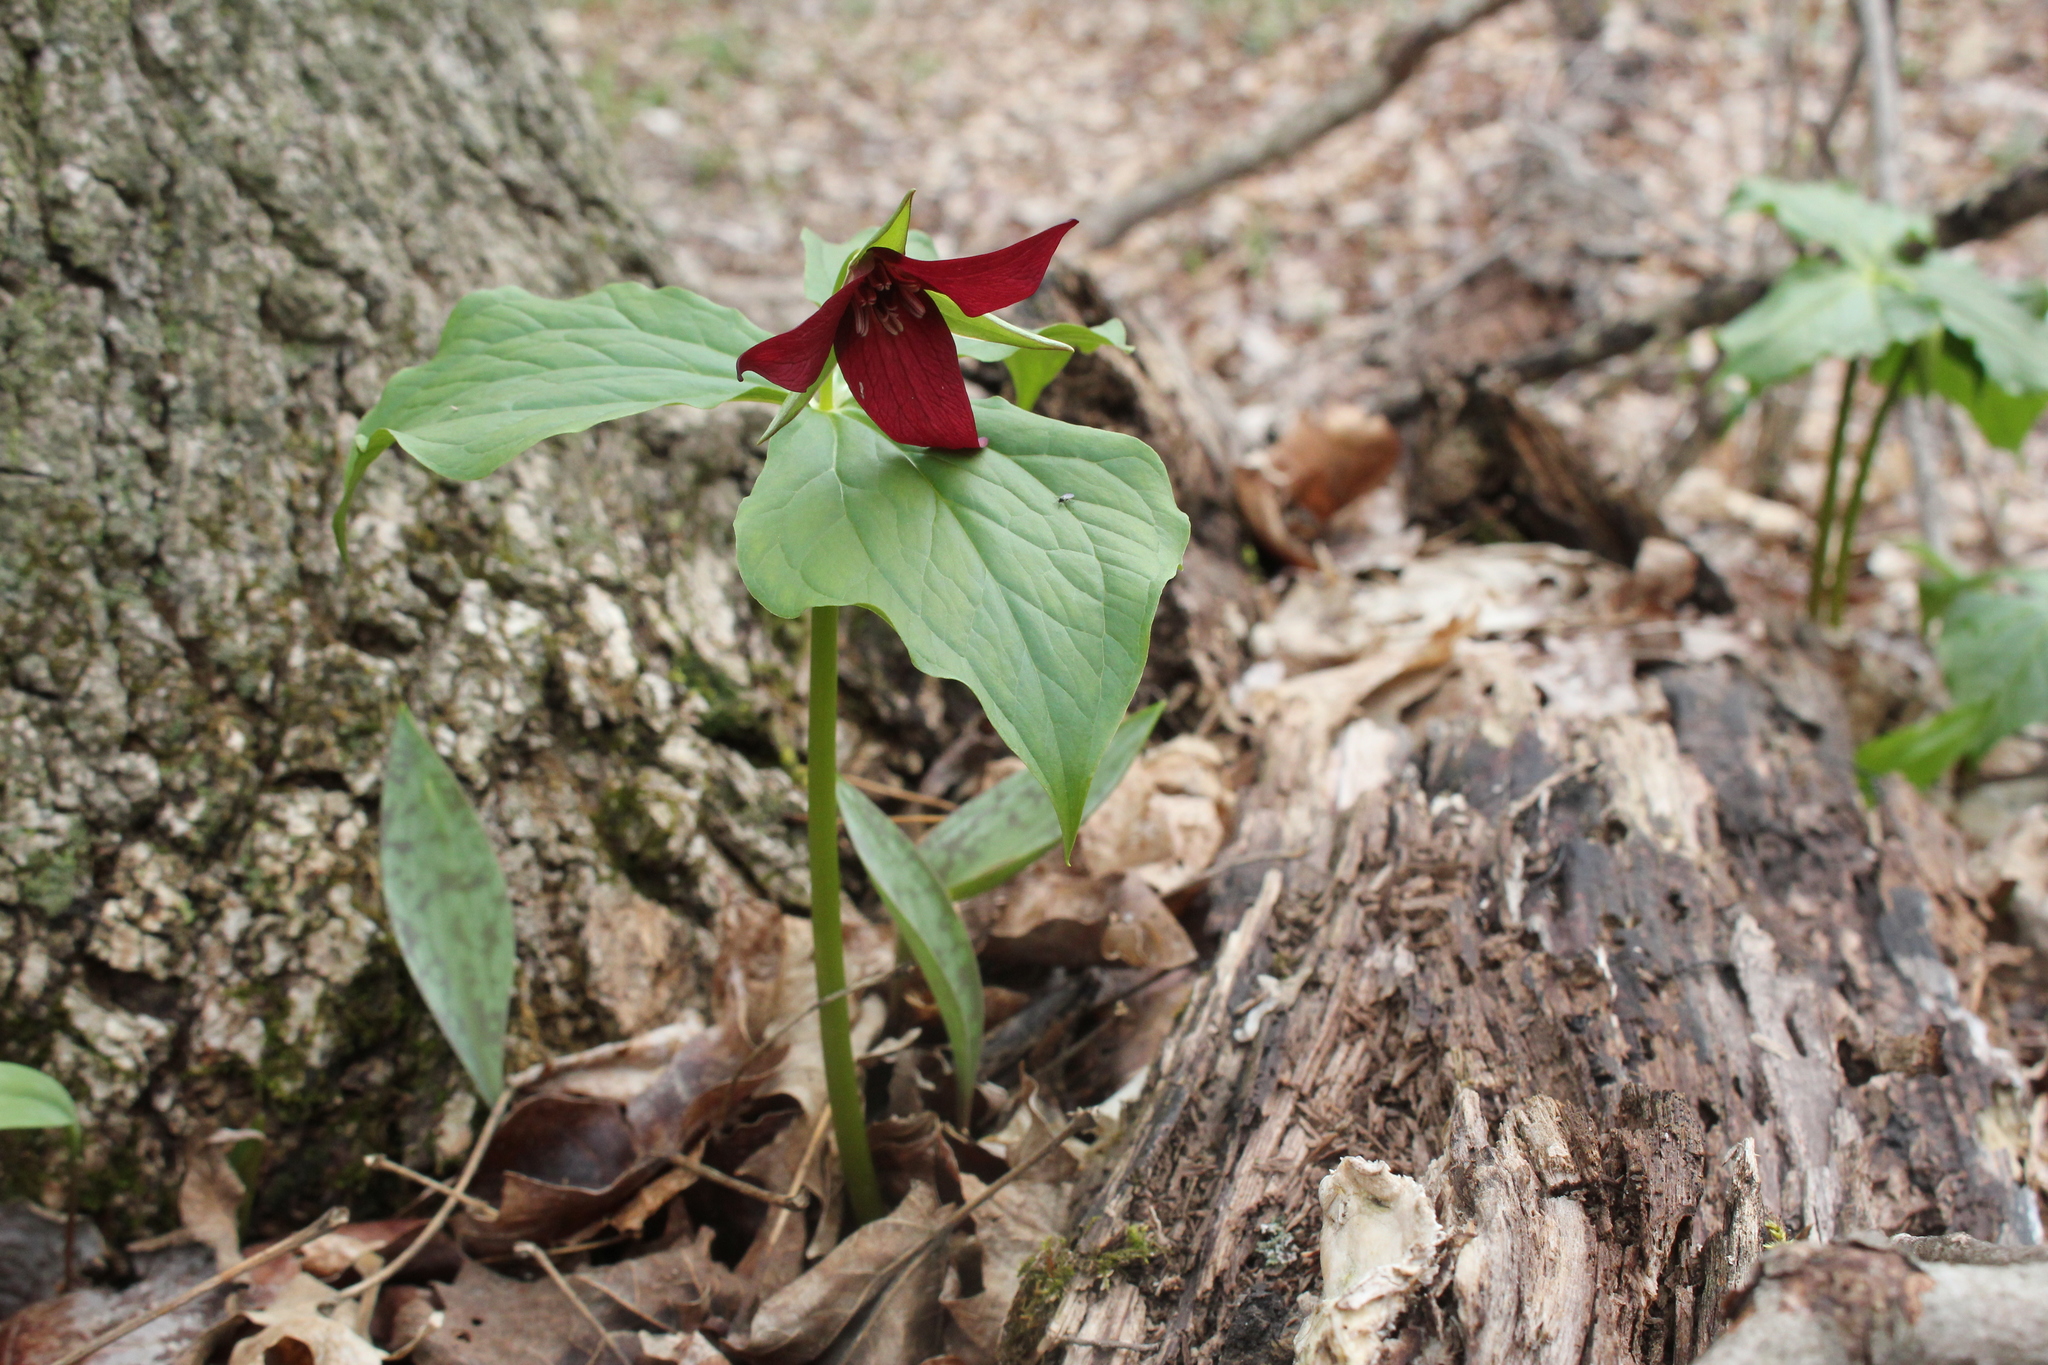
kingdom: Plantae
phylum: Tracheophyta
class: Liliopsida
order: Liliales
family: Melanthiaceae
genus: Trillium
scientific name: Trillium erectum
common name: Purple trillium
